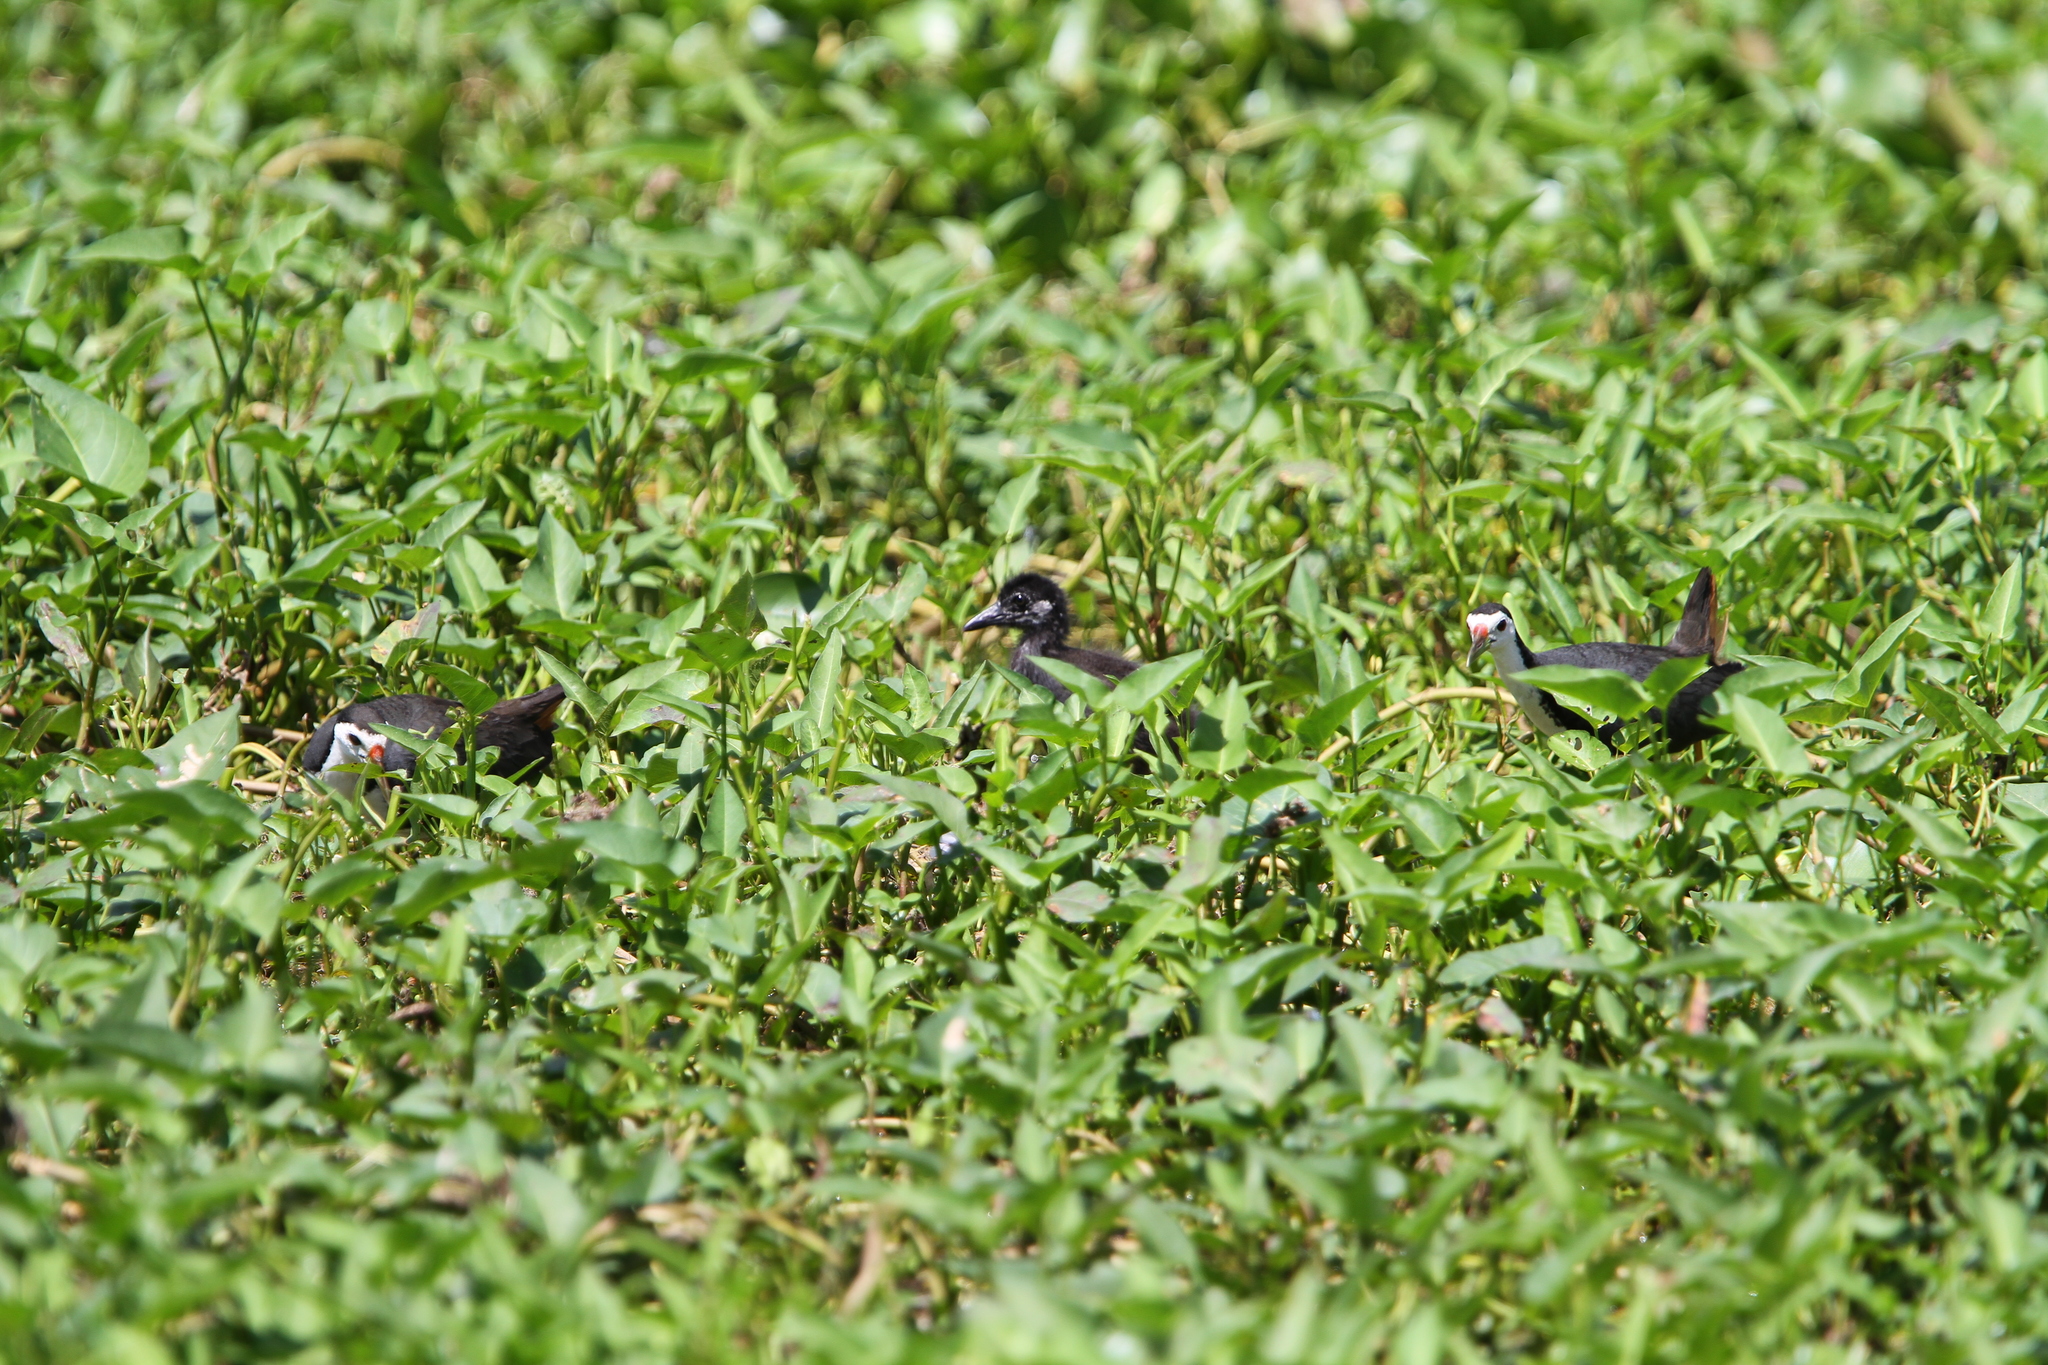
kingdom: Animalia
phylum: Chordata
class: Aves
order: Gruiformes
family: Rallidae
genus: Amaurornis
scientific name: Amaurornis phoenicurus
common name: White-breasted waterhen
